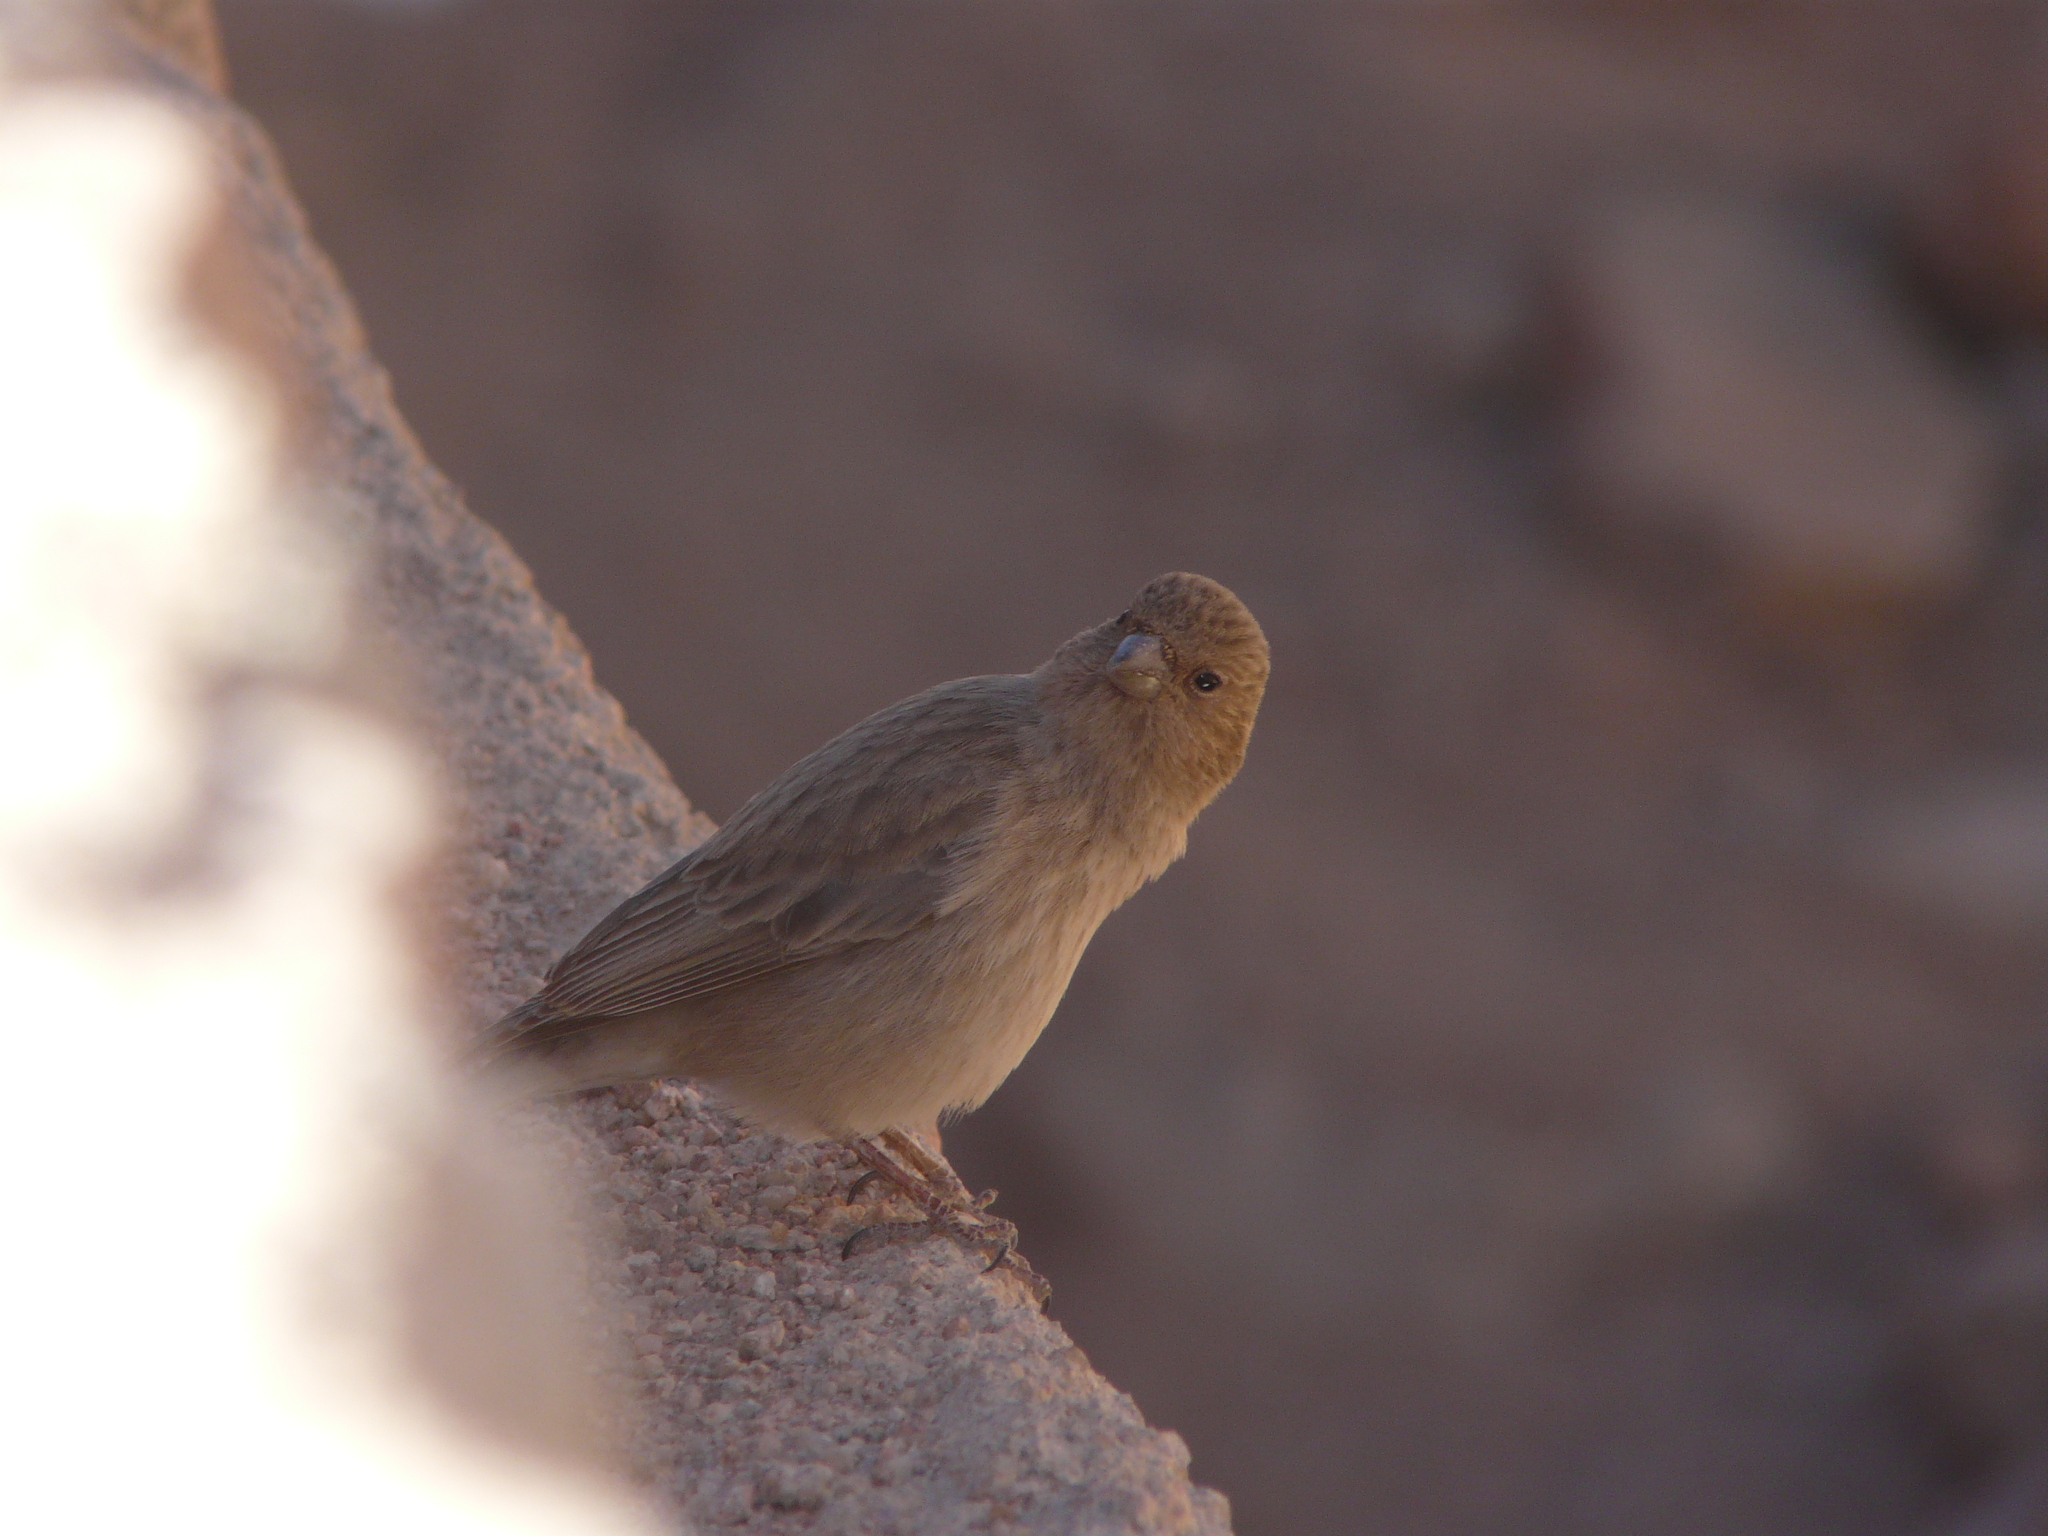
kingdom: Animalia
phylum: Chordata
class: Aves
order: Passeriformes
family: Fringillidae
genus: Carpodacus
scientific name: Carpodacus synoicus
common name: Sinai rosefinch
